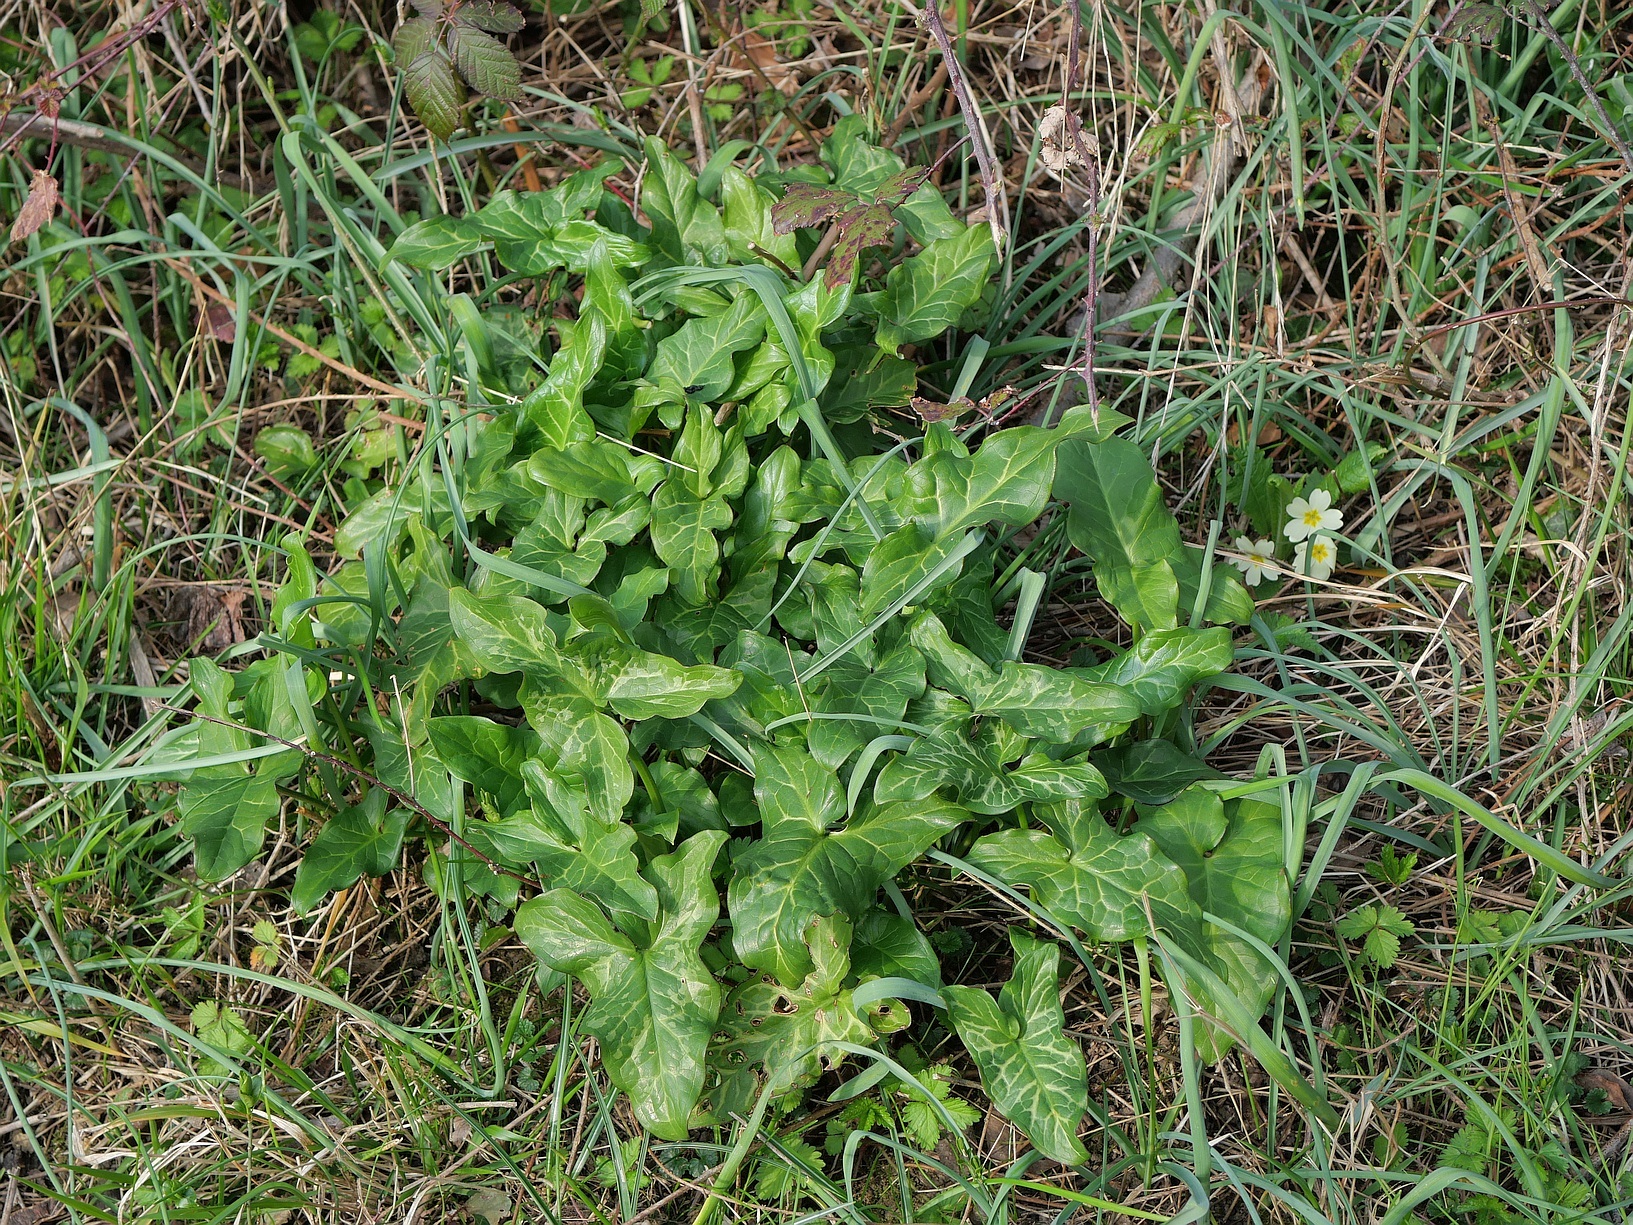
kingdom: Plantae
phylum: Tracheophyta
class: Liliopsida
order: Alismatales
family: Araceae
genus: Arum
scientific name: Arum italicum
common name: Italian lords-and-ladies
